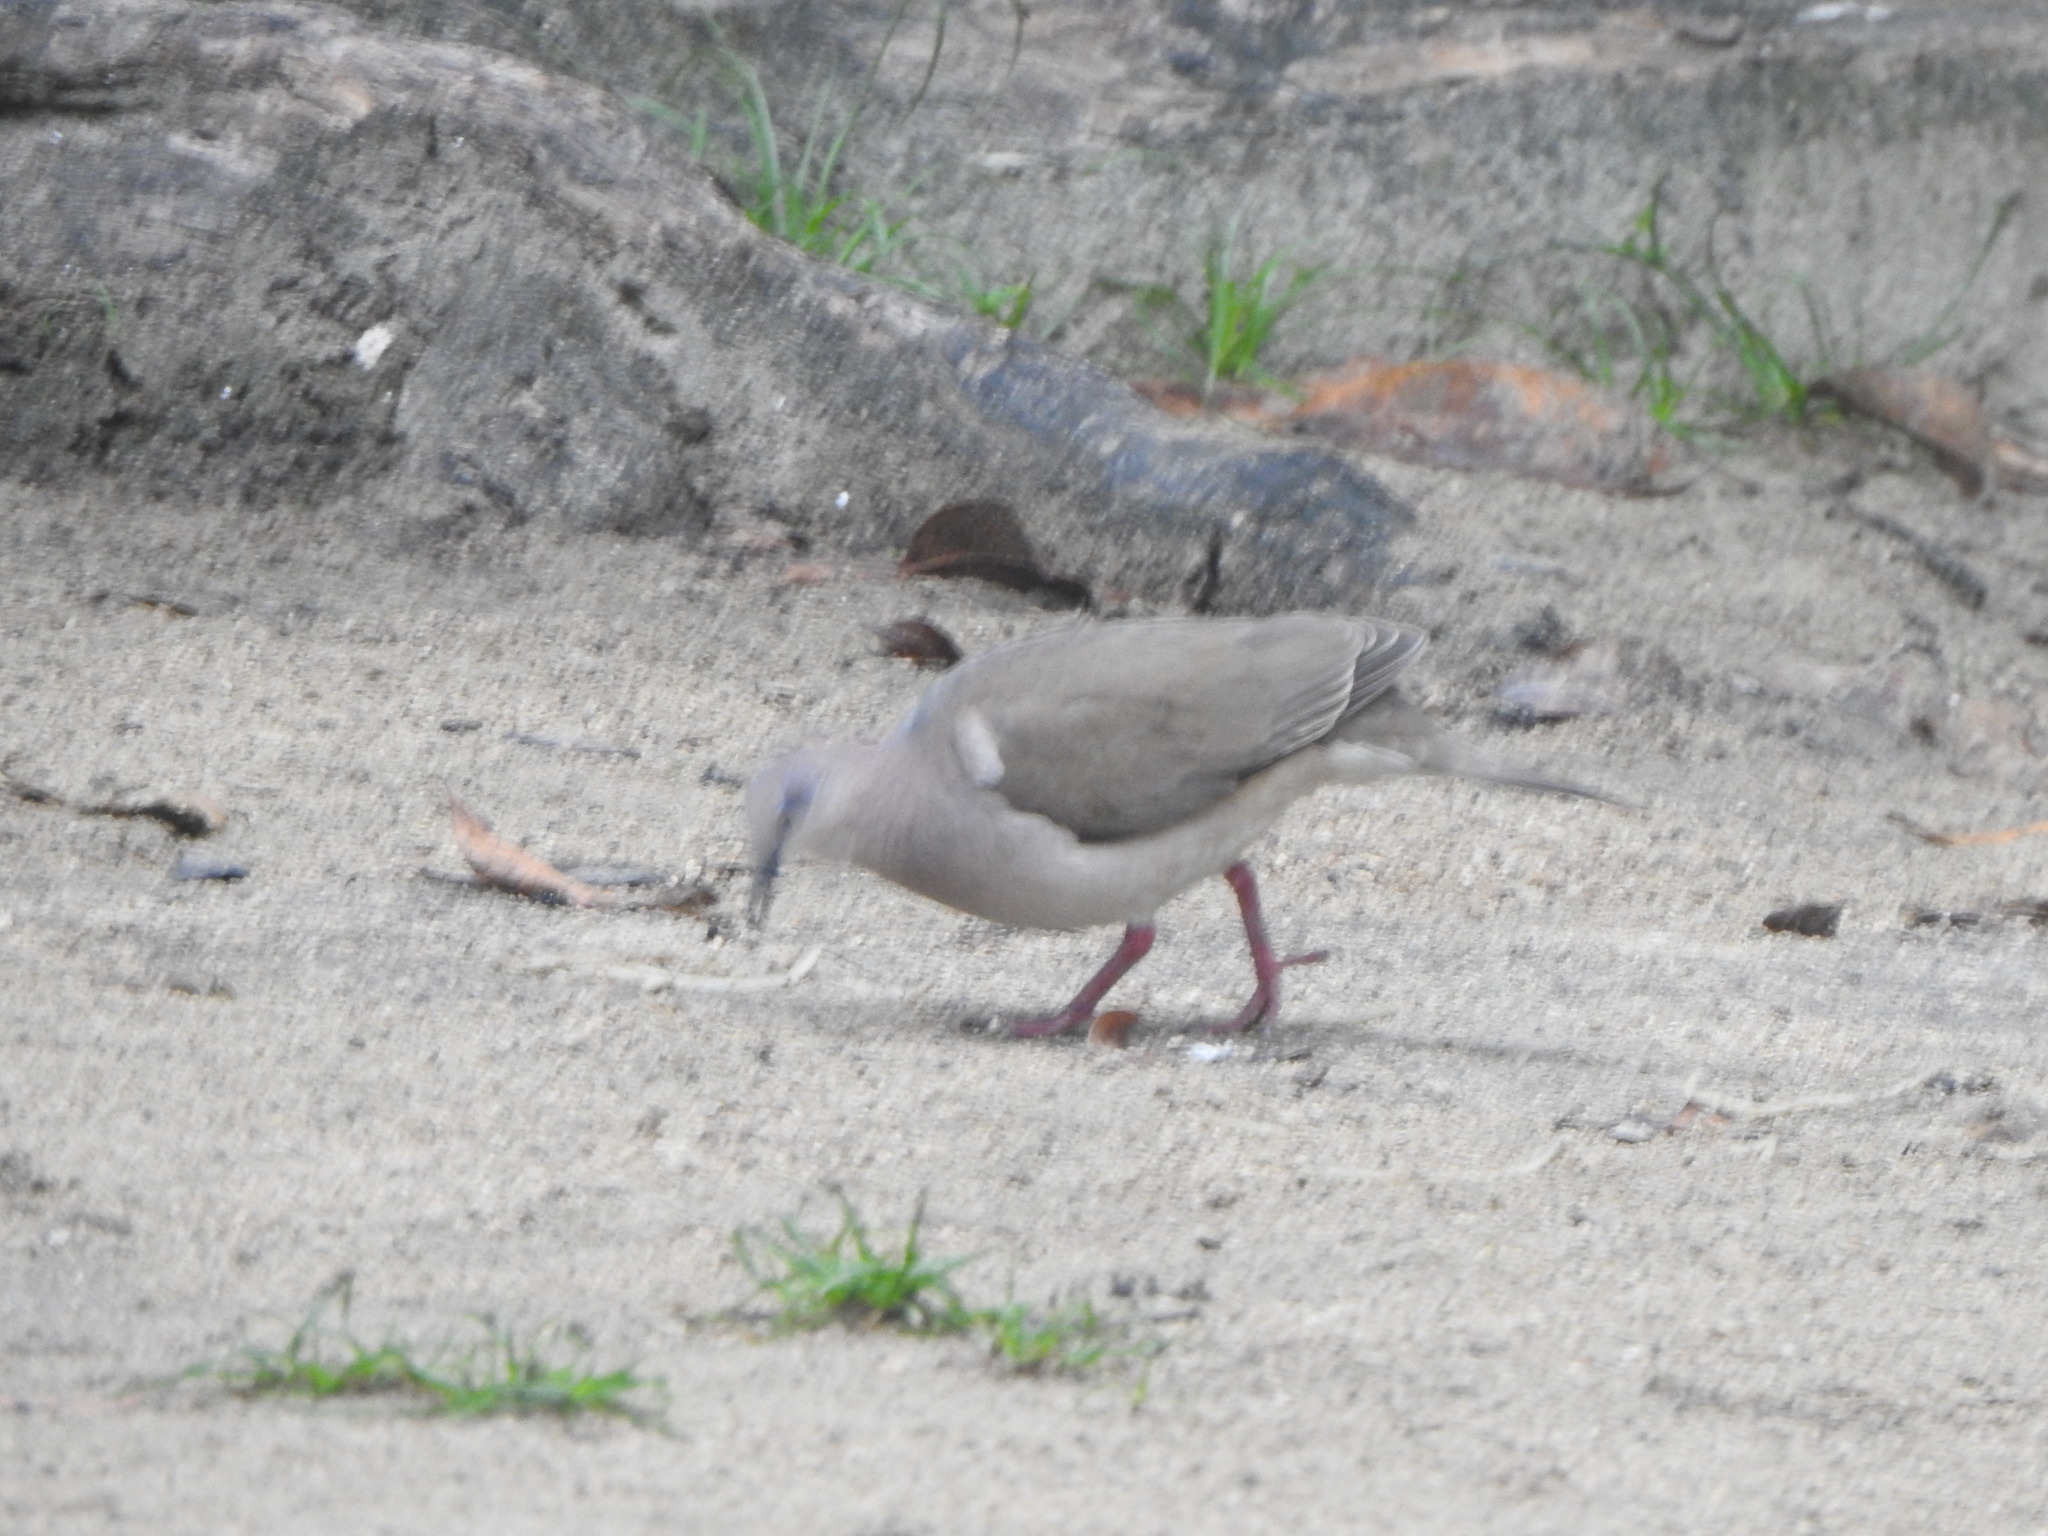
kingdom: Animalia
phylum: Chordata
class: Aves
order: Columbiformes
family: Columbidae
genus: Leptotila
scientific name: Leptotila verreauxi
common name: White-tipped dove
